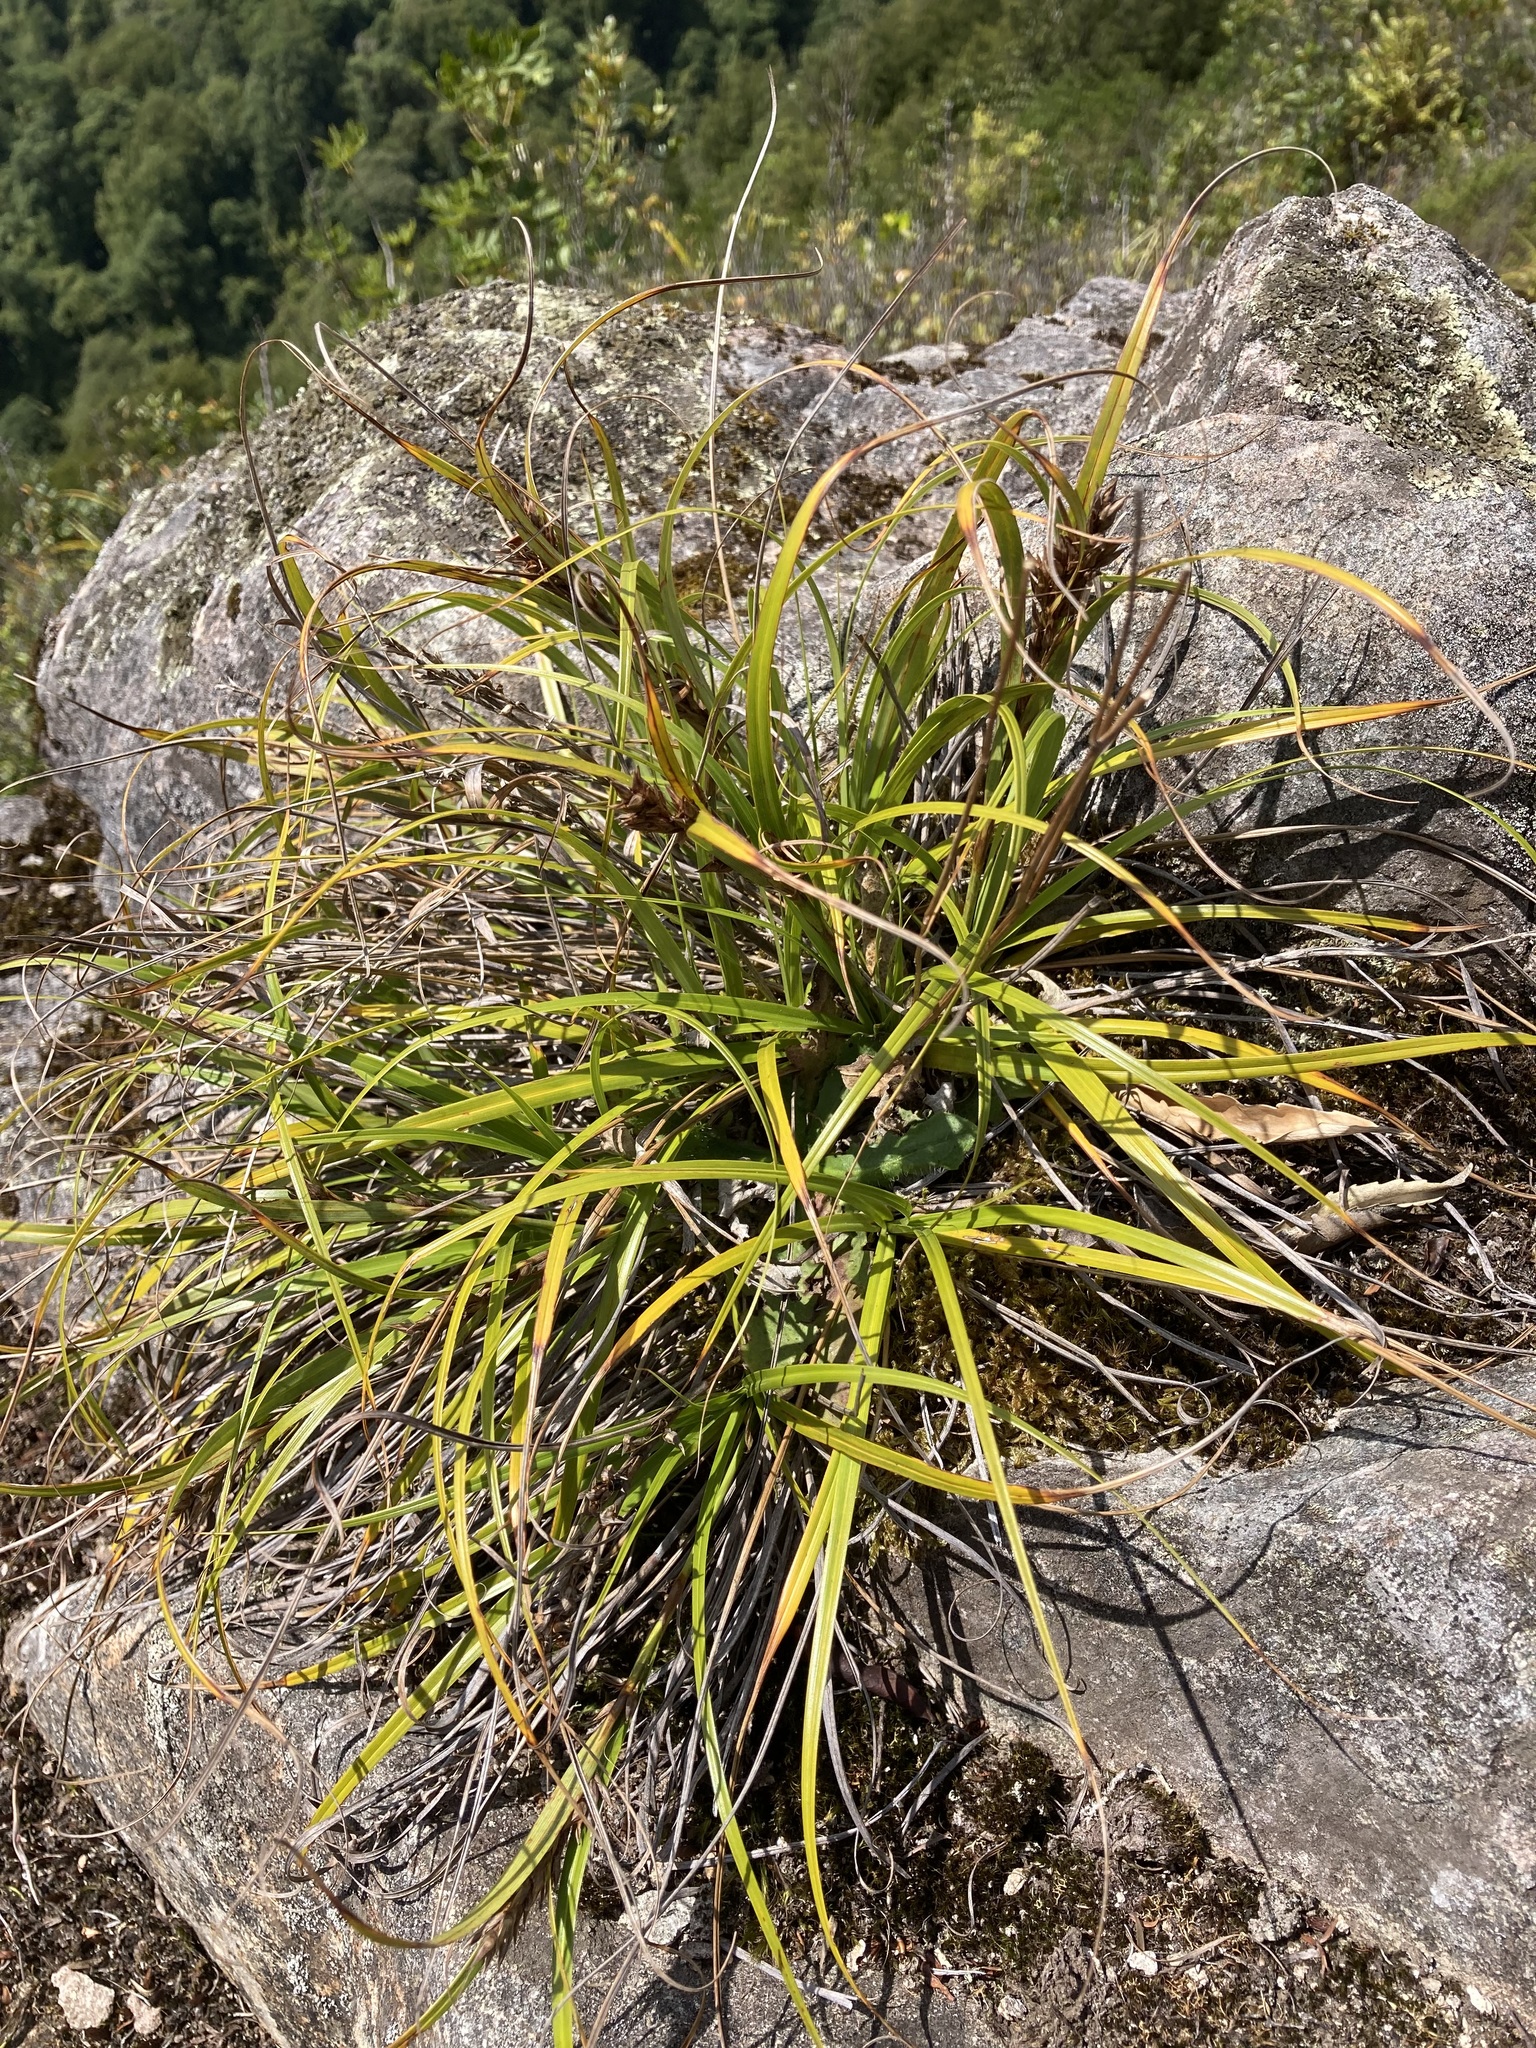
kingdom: Plantae
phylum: Tracheophyta
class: Liliopsida
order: Poales
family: Cyperaceae
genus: Morelotia
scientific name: Morelotia affinis
